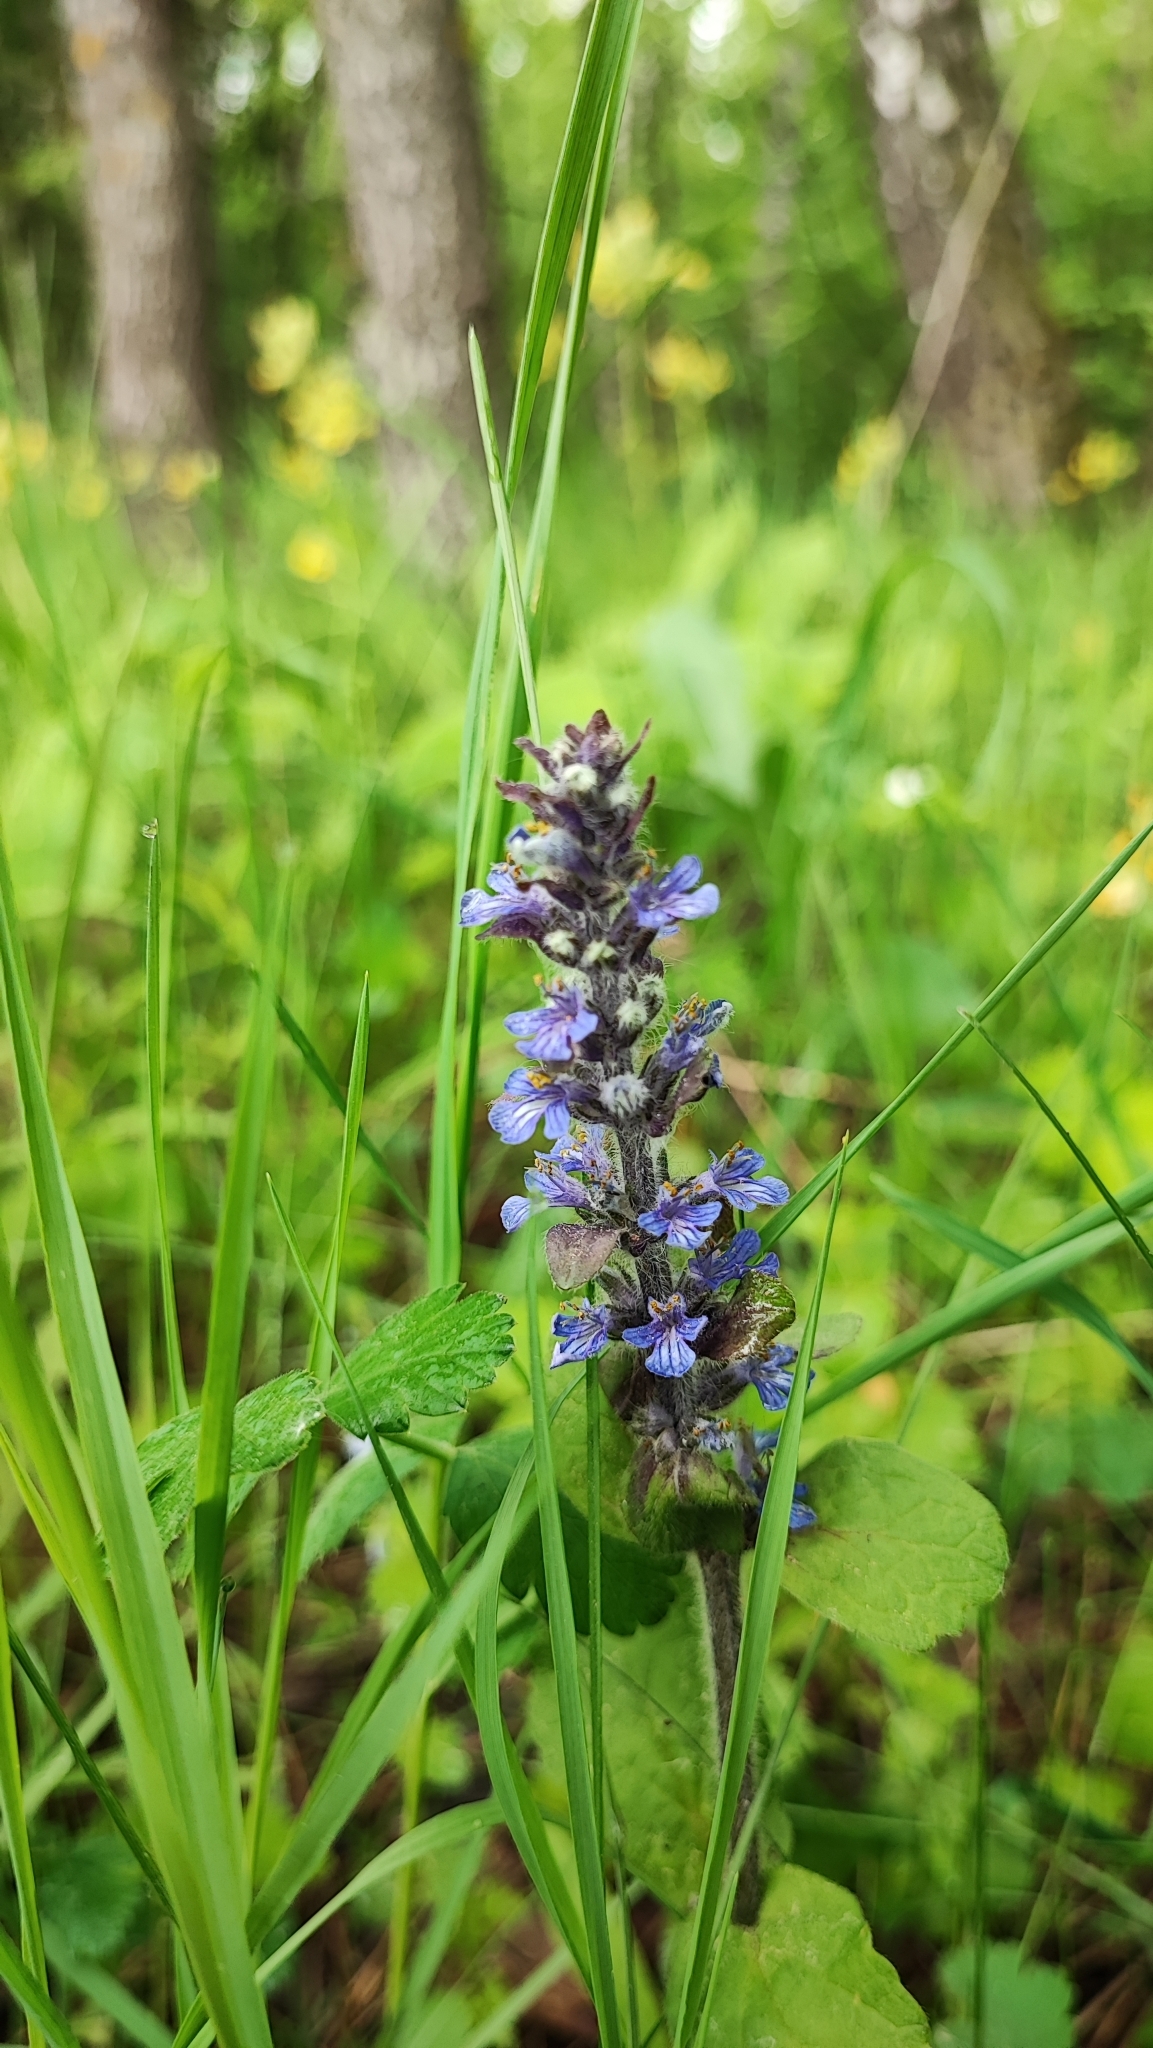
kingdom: Plantae
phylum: Tracheophyta
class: Magnoliopsida
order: Lamiales
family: Lamiaceae
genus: Ajuga
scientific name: Ajuga reptans
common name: Bugle
